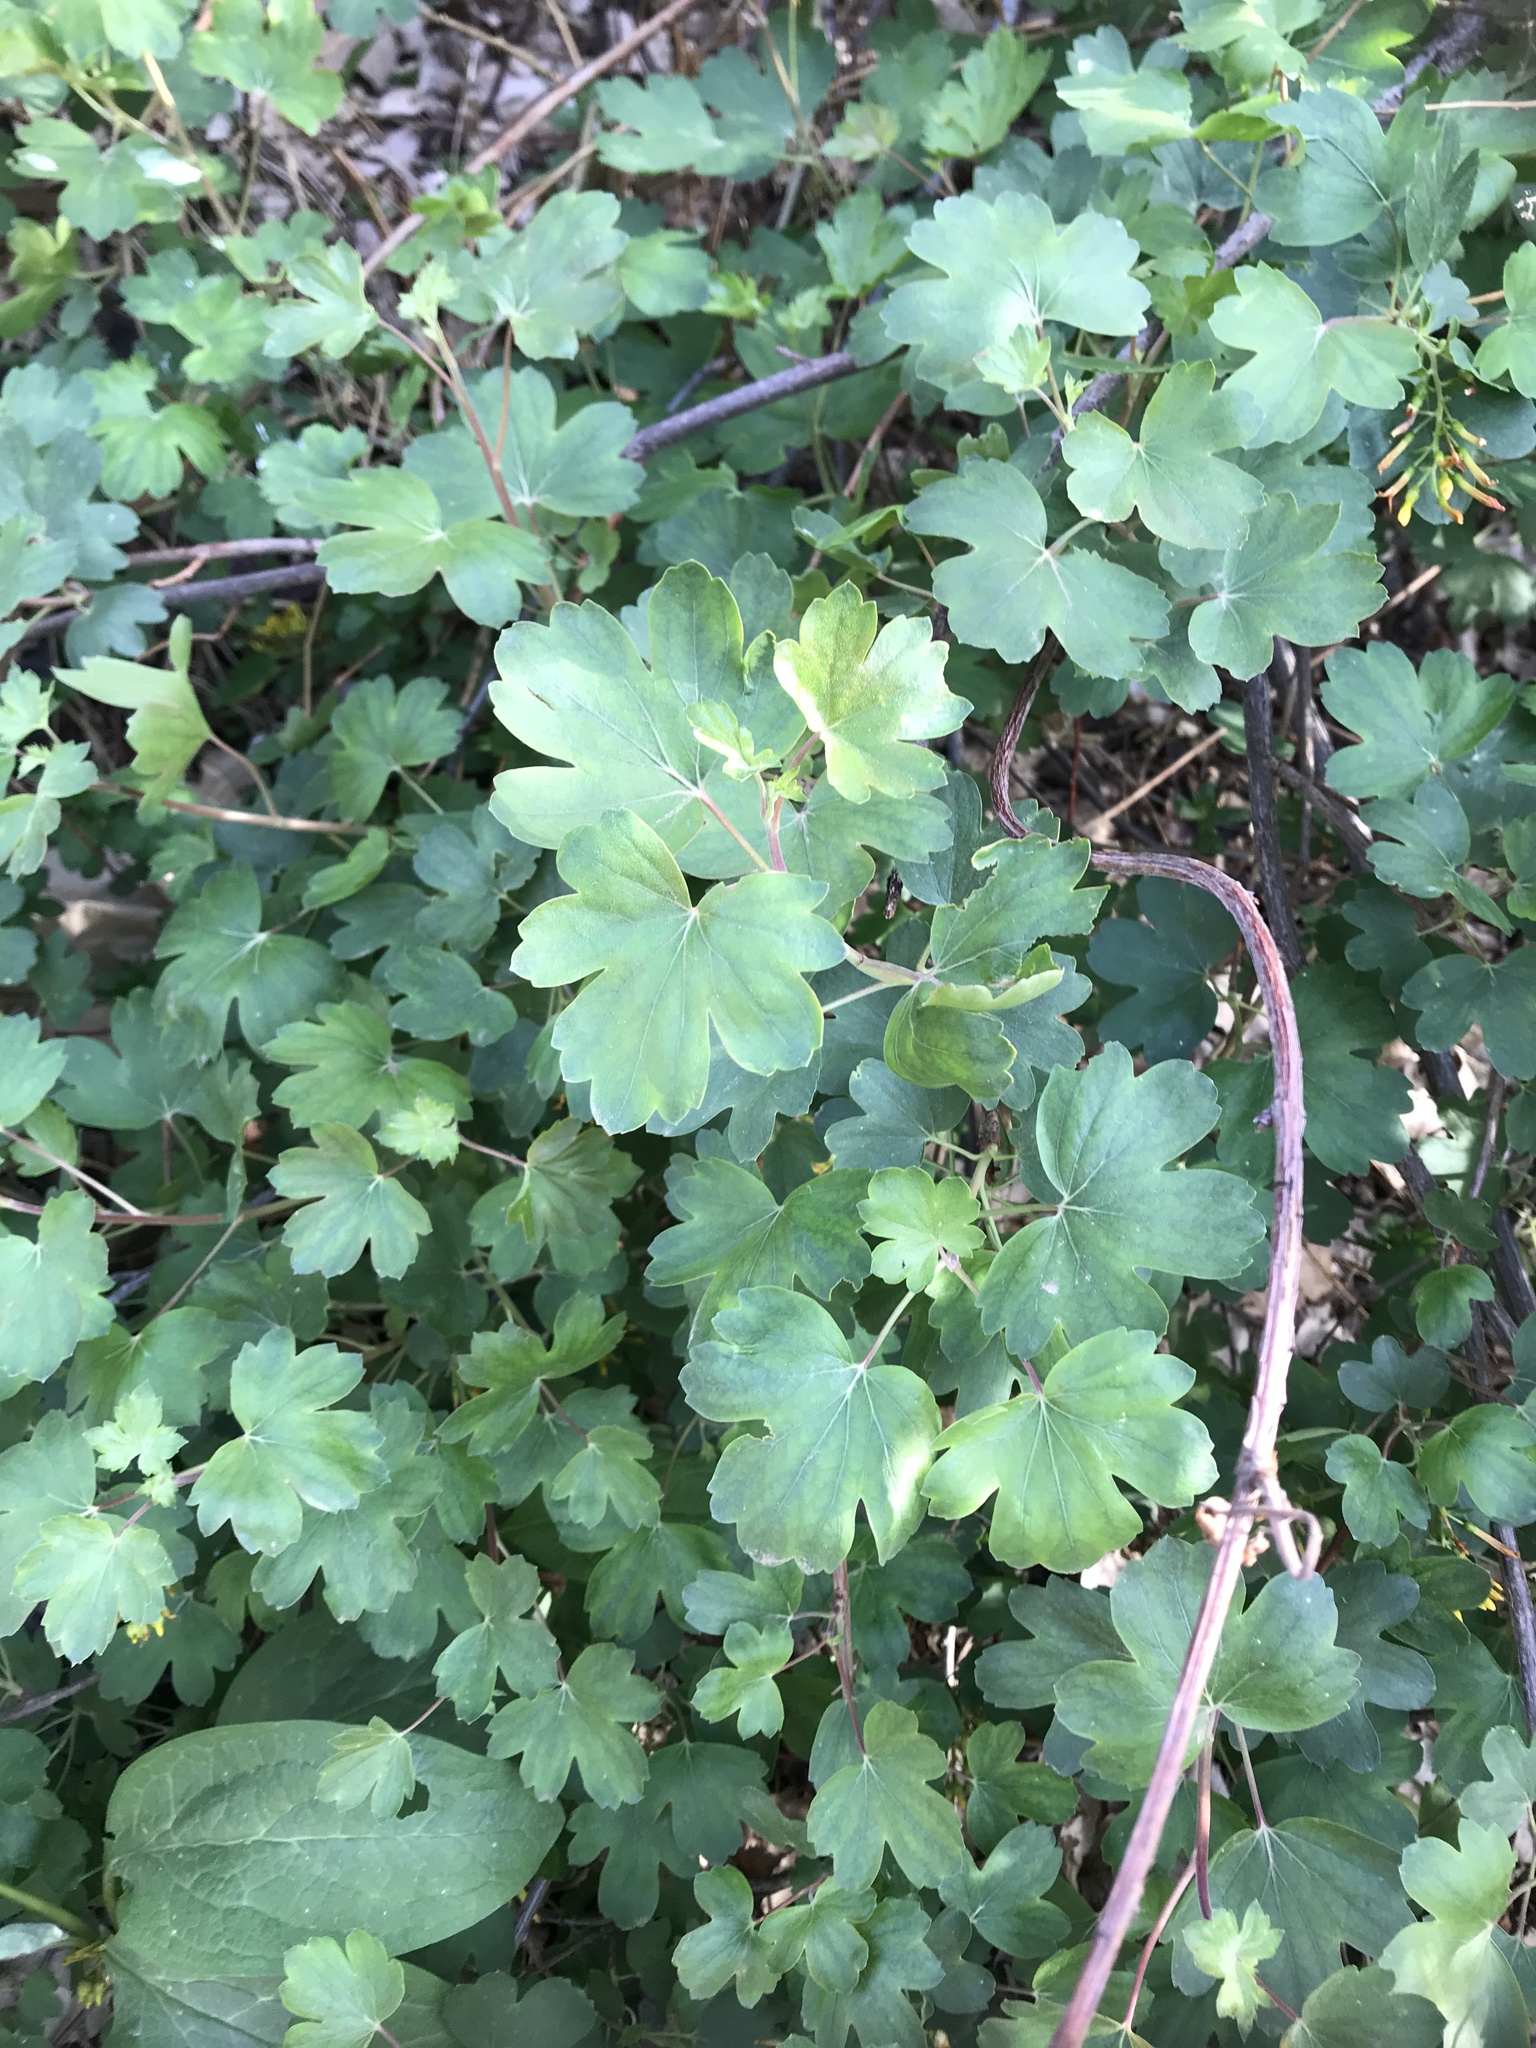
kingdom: Plantae
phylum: Tracheophyta
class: Magnoliopsida
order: Saxifragales
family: Grossulariaceae
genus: Ribes
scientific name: Ribes aureum
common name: Golden currant
